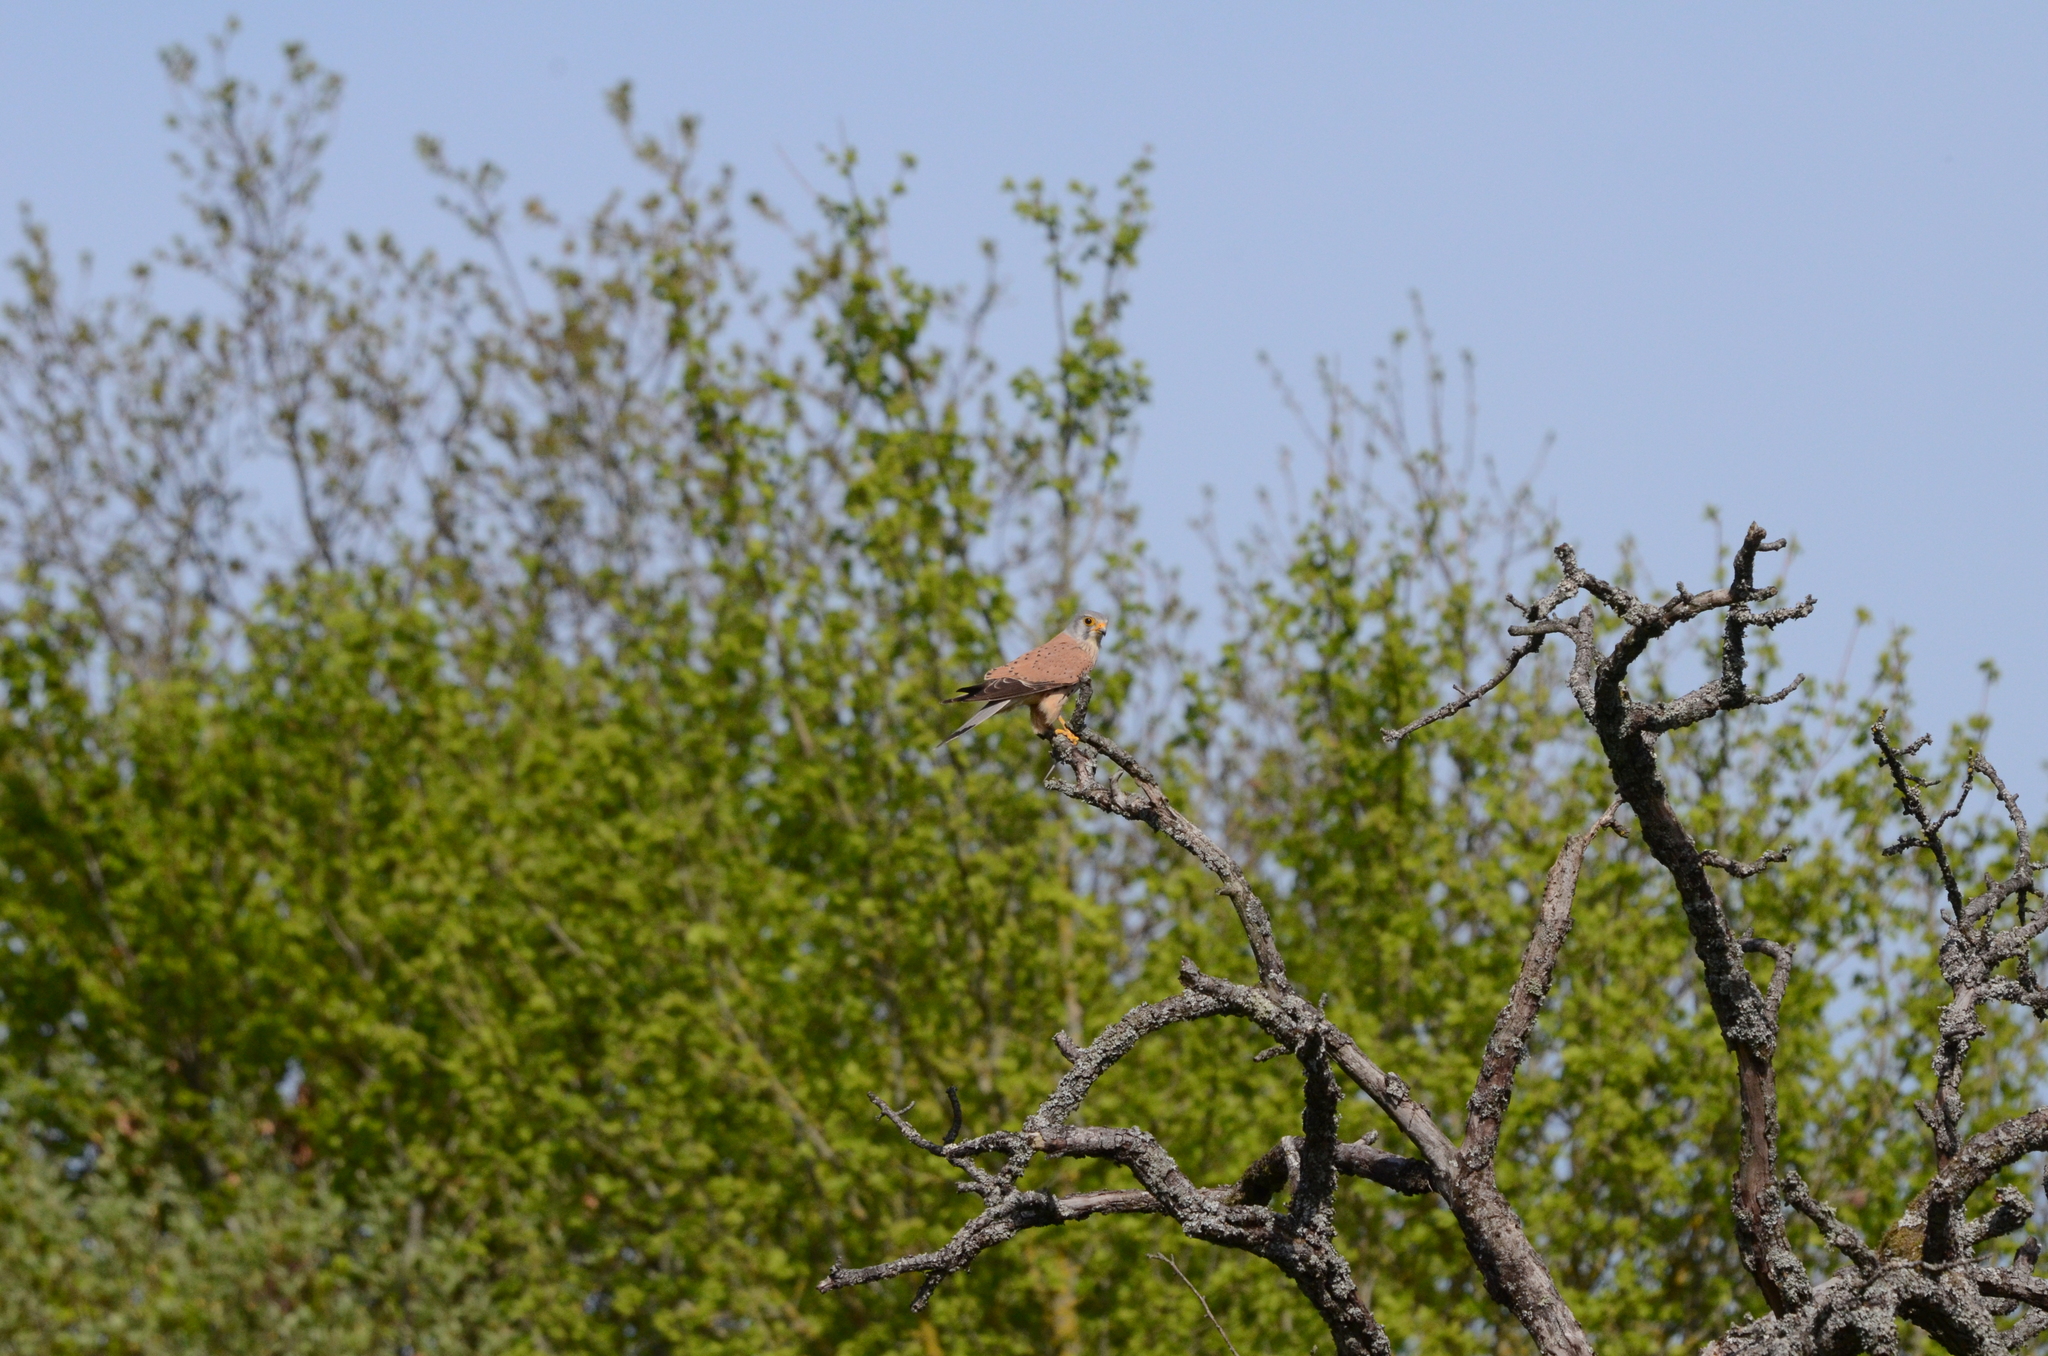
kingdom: Animalia
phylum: Chordata
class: Aves
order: Falconiformes
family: Falconidae
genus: Falco
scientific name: Falco tinnunculus
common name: Common kestrel
